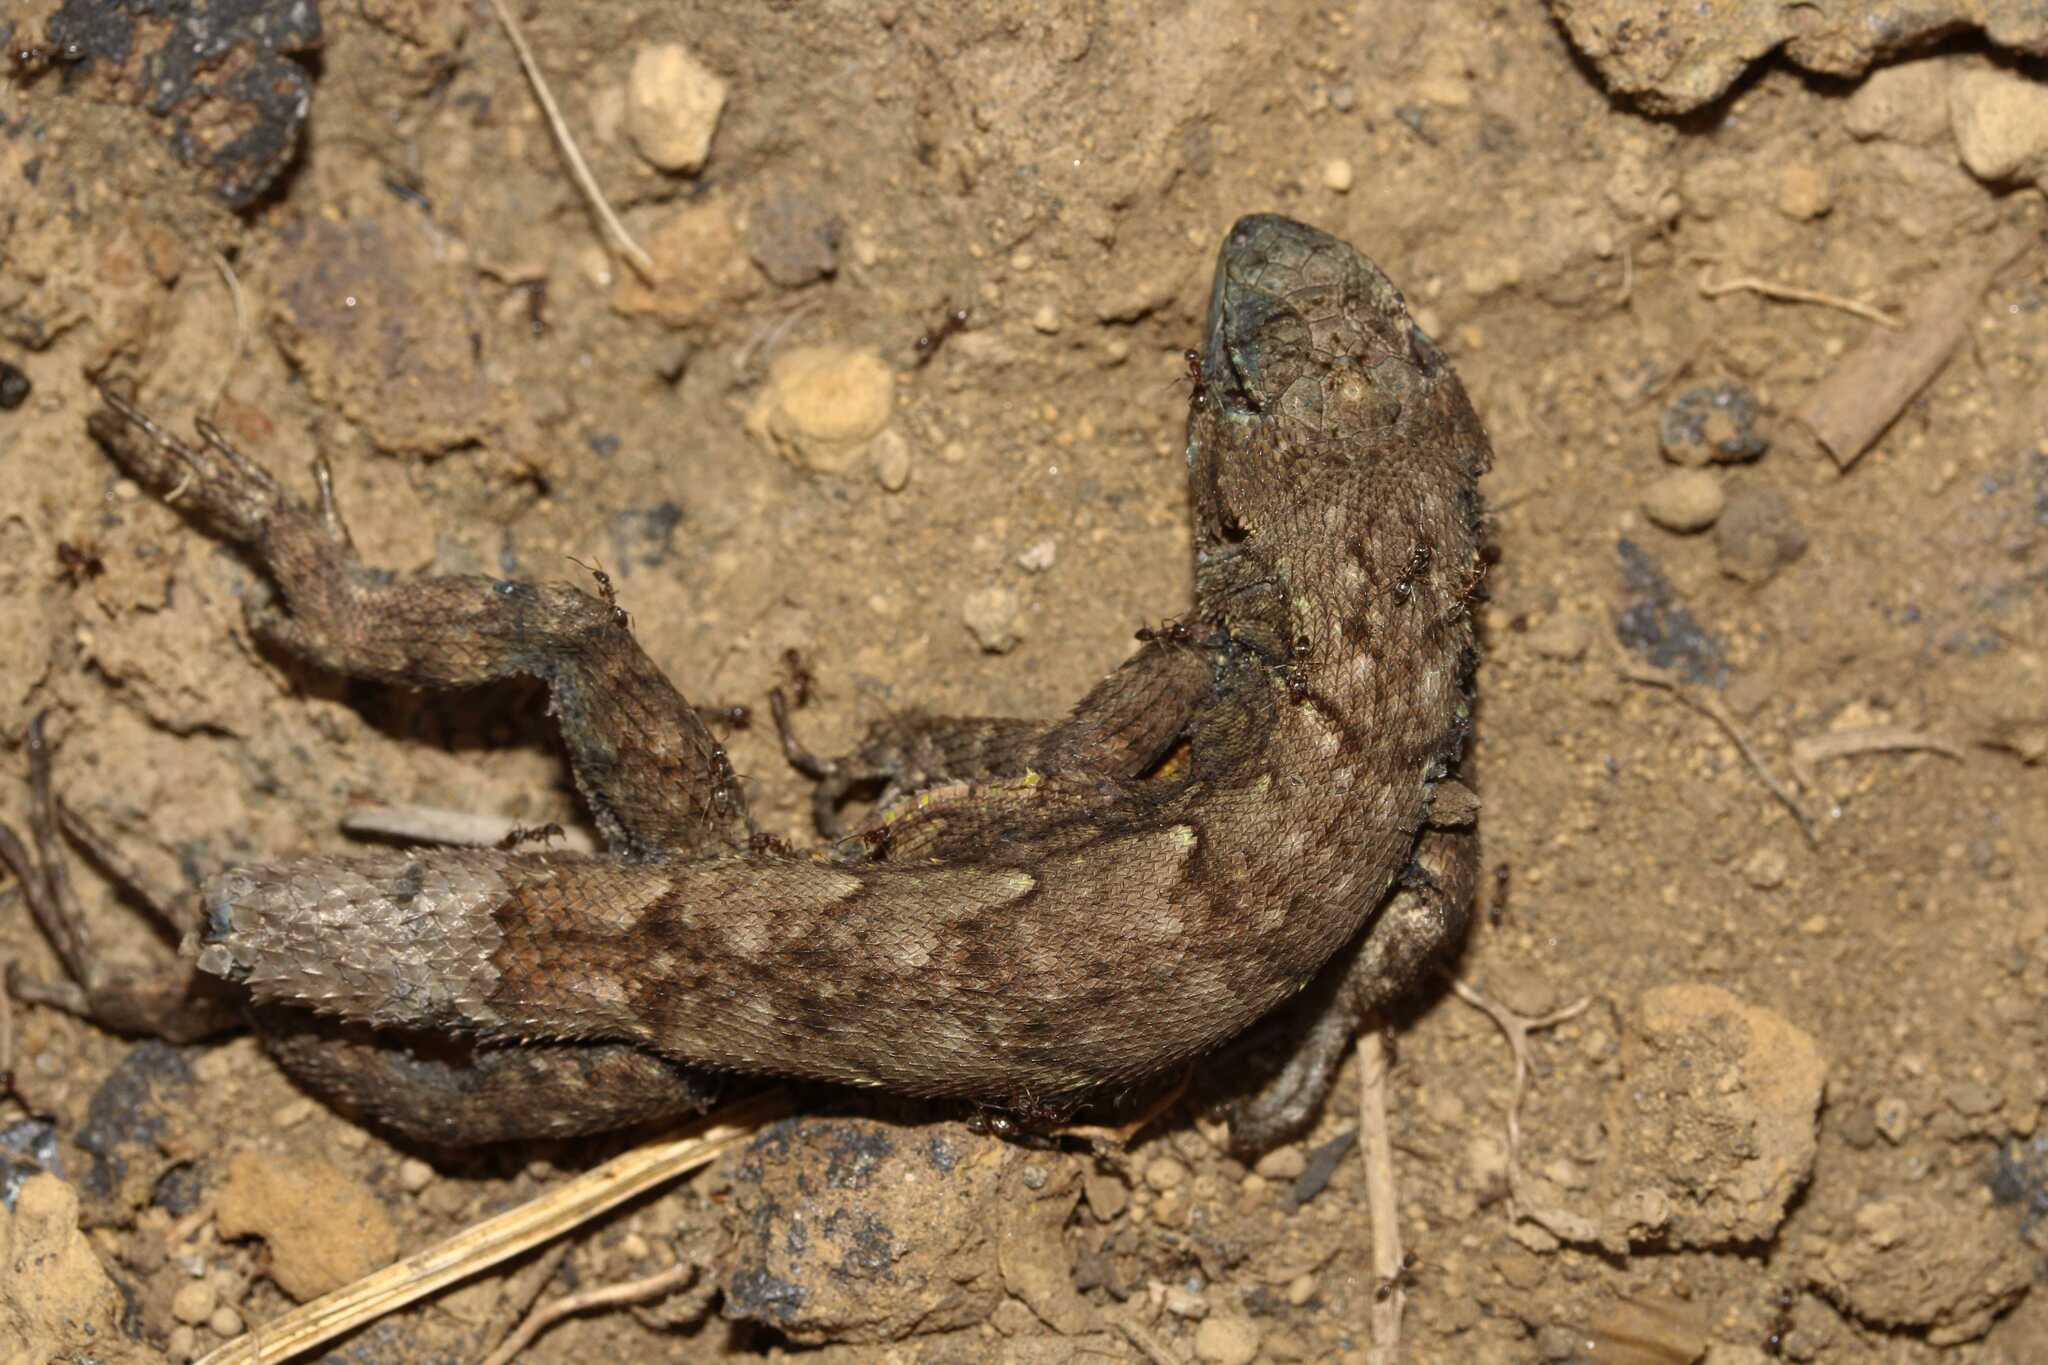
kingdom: Animalia
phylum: Chordata
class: Squamata
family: Phrynosomatidae
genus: Sceloporus
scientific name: Sceloporus grammicus
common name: Mesquite lizard
